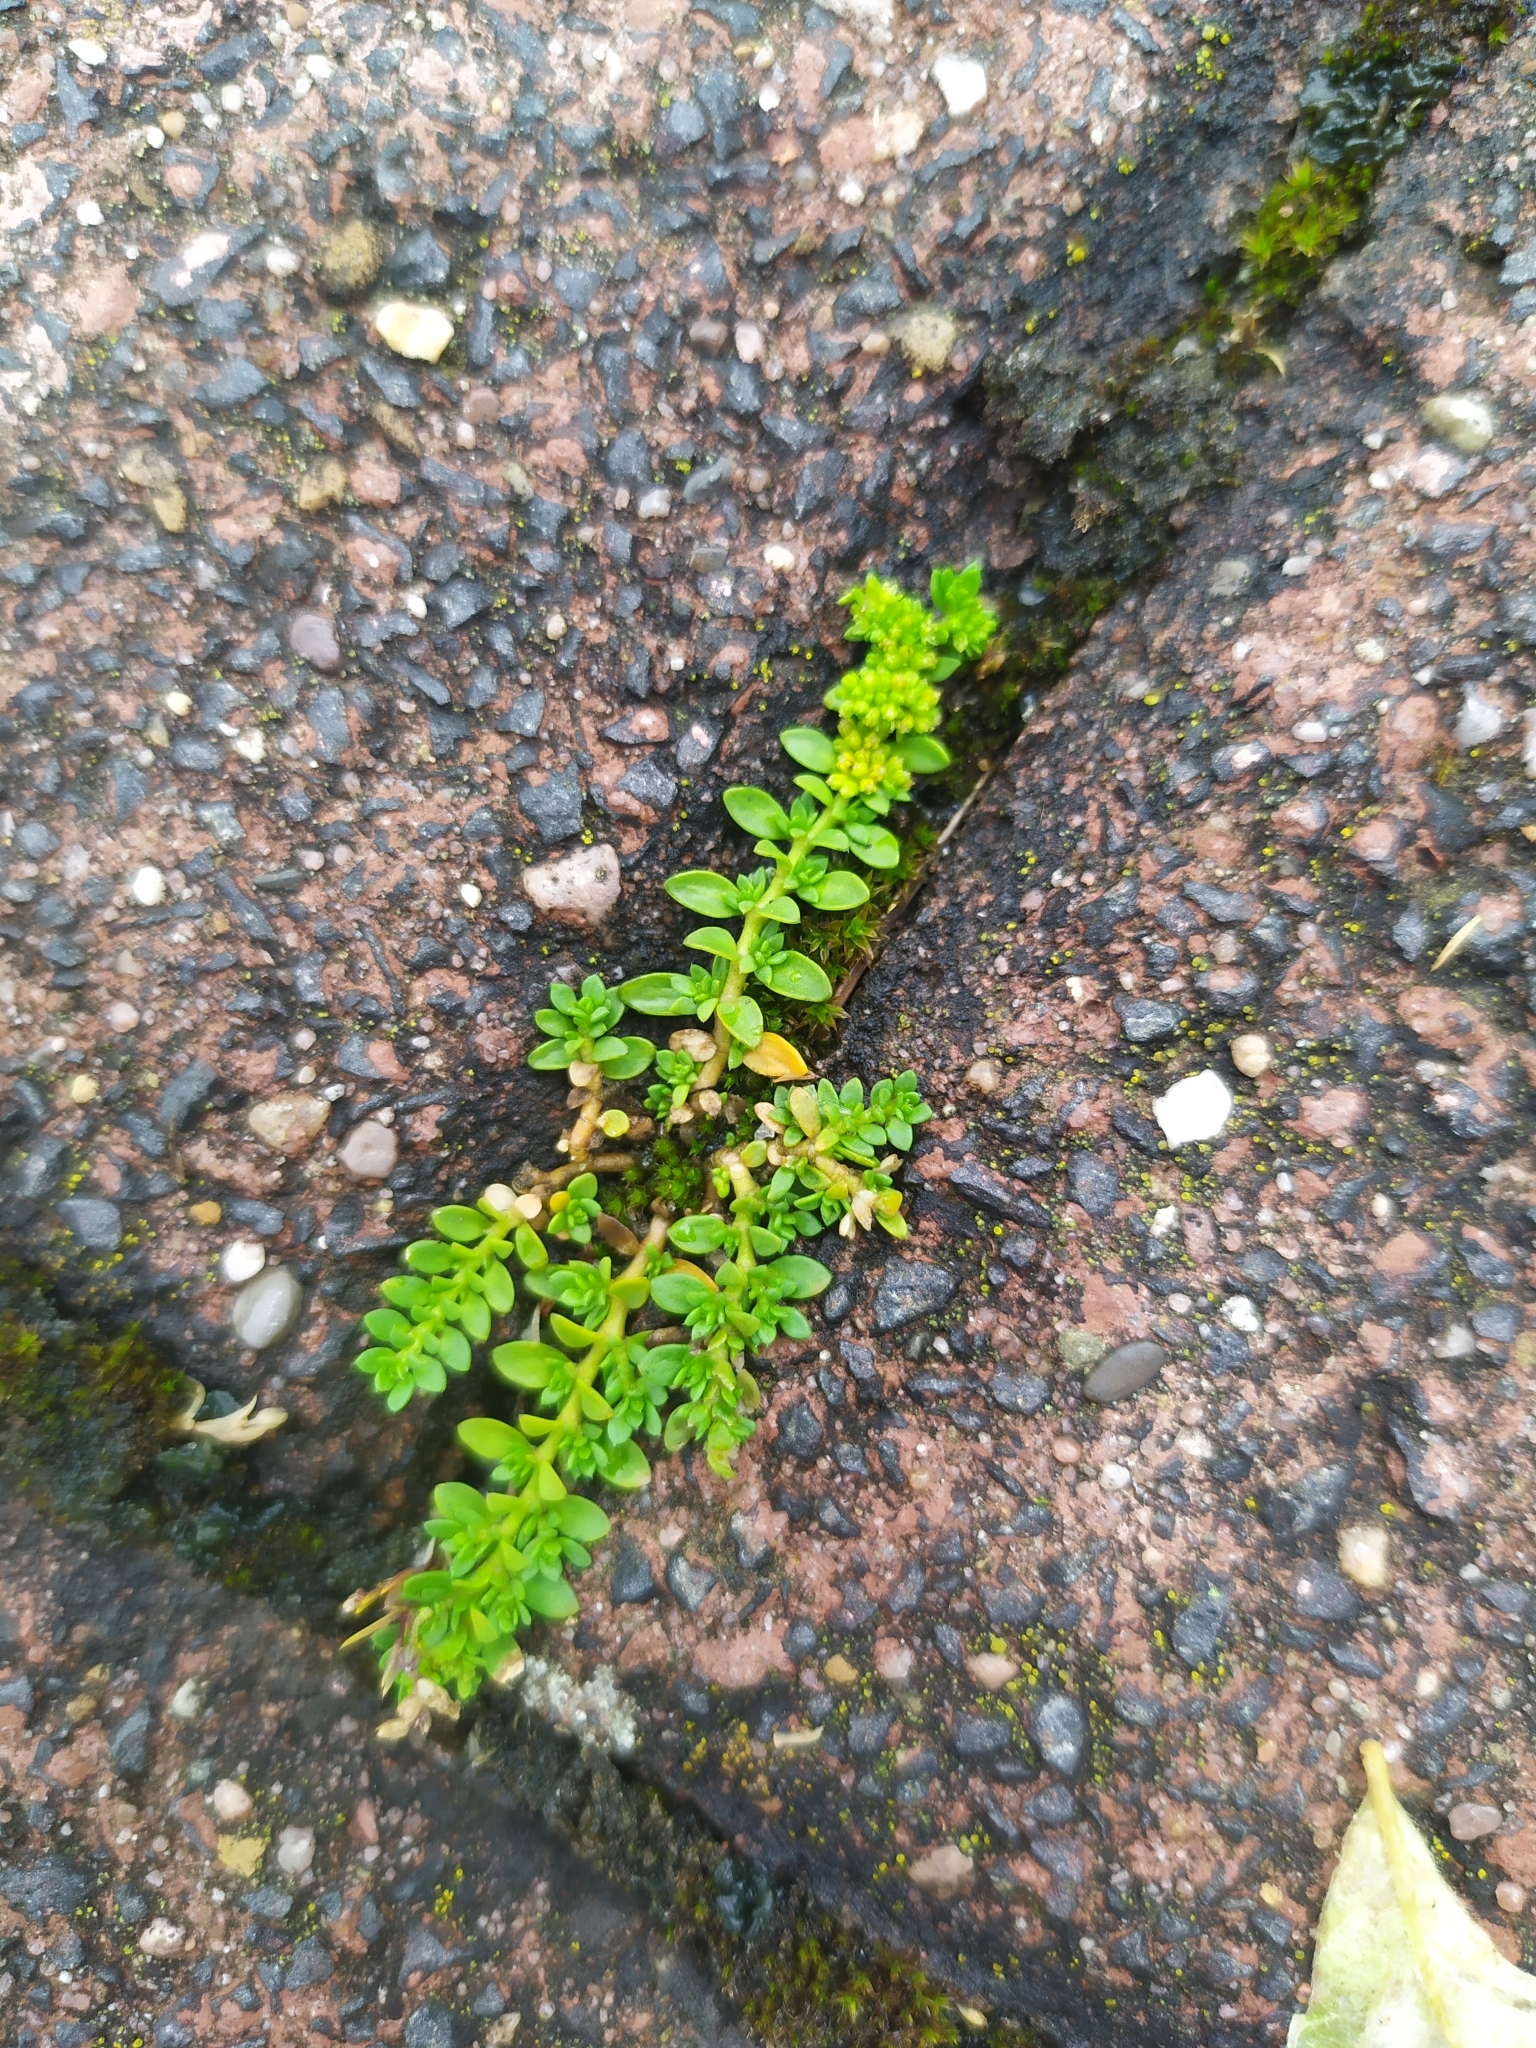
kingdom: Plantae
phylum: Tracheophyta
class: Magnoliopsida
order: Caryophyllales
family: Caryophyllaceae
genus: Herniaria
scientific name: Herniaria glabra
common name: Smooth rupturewort
